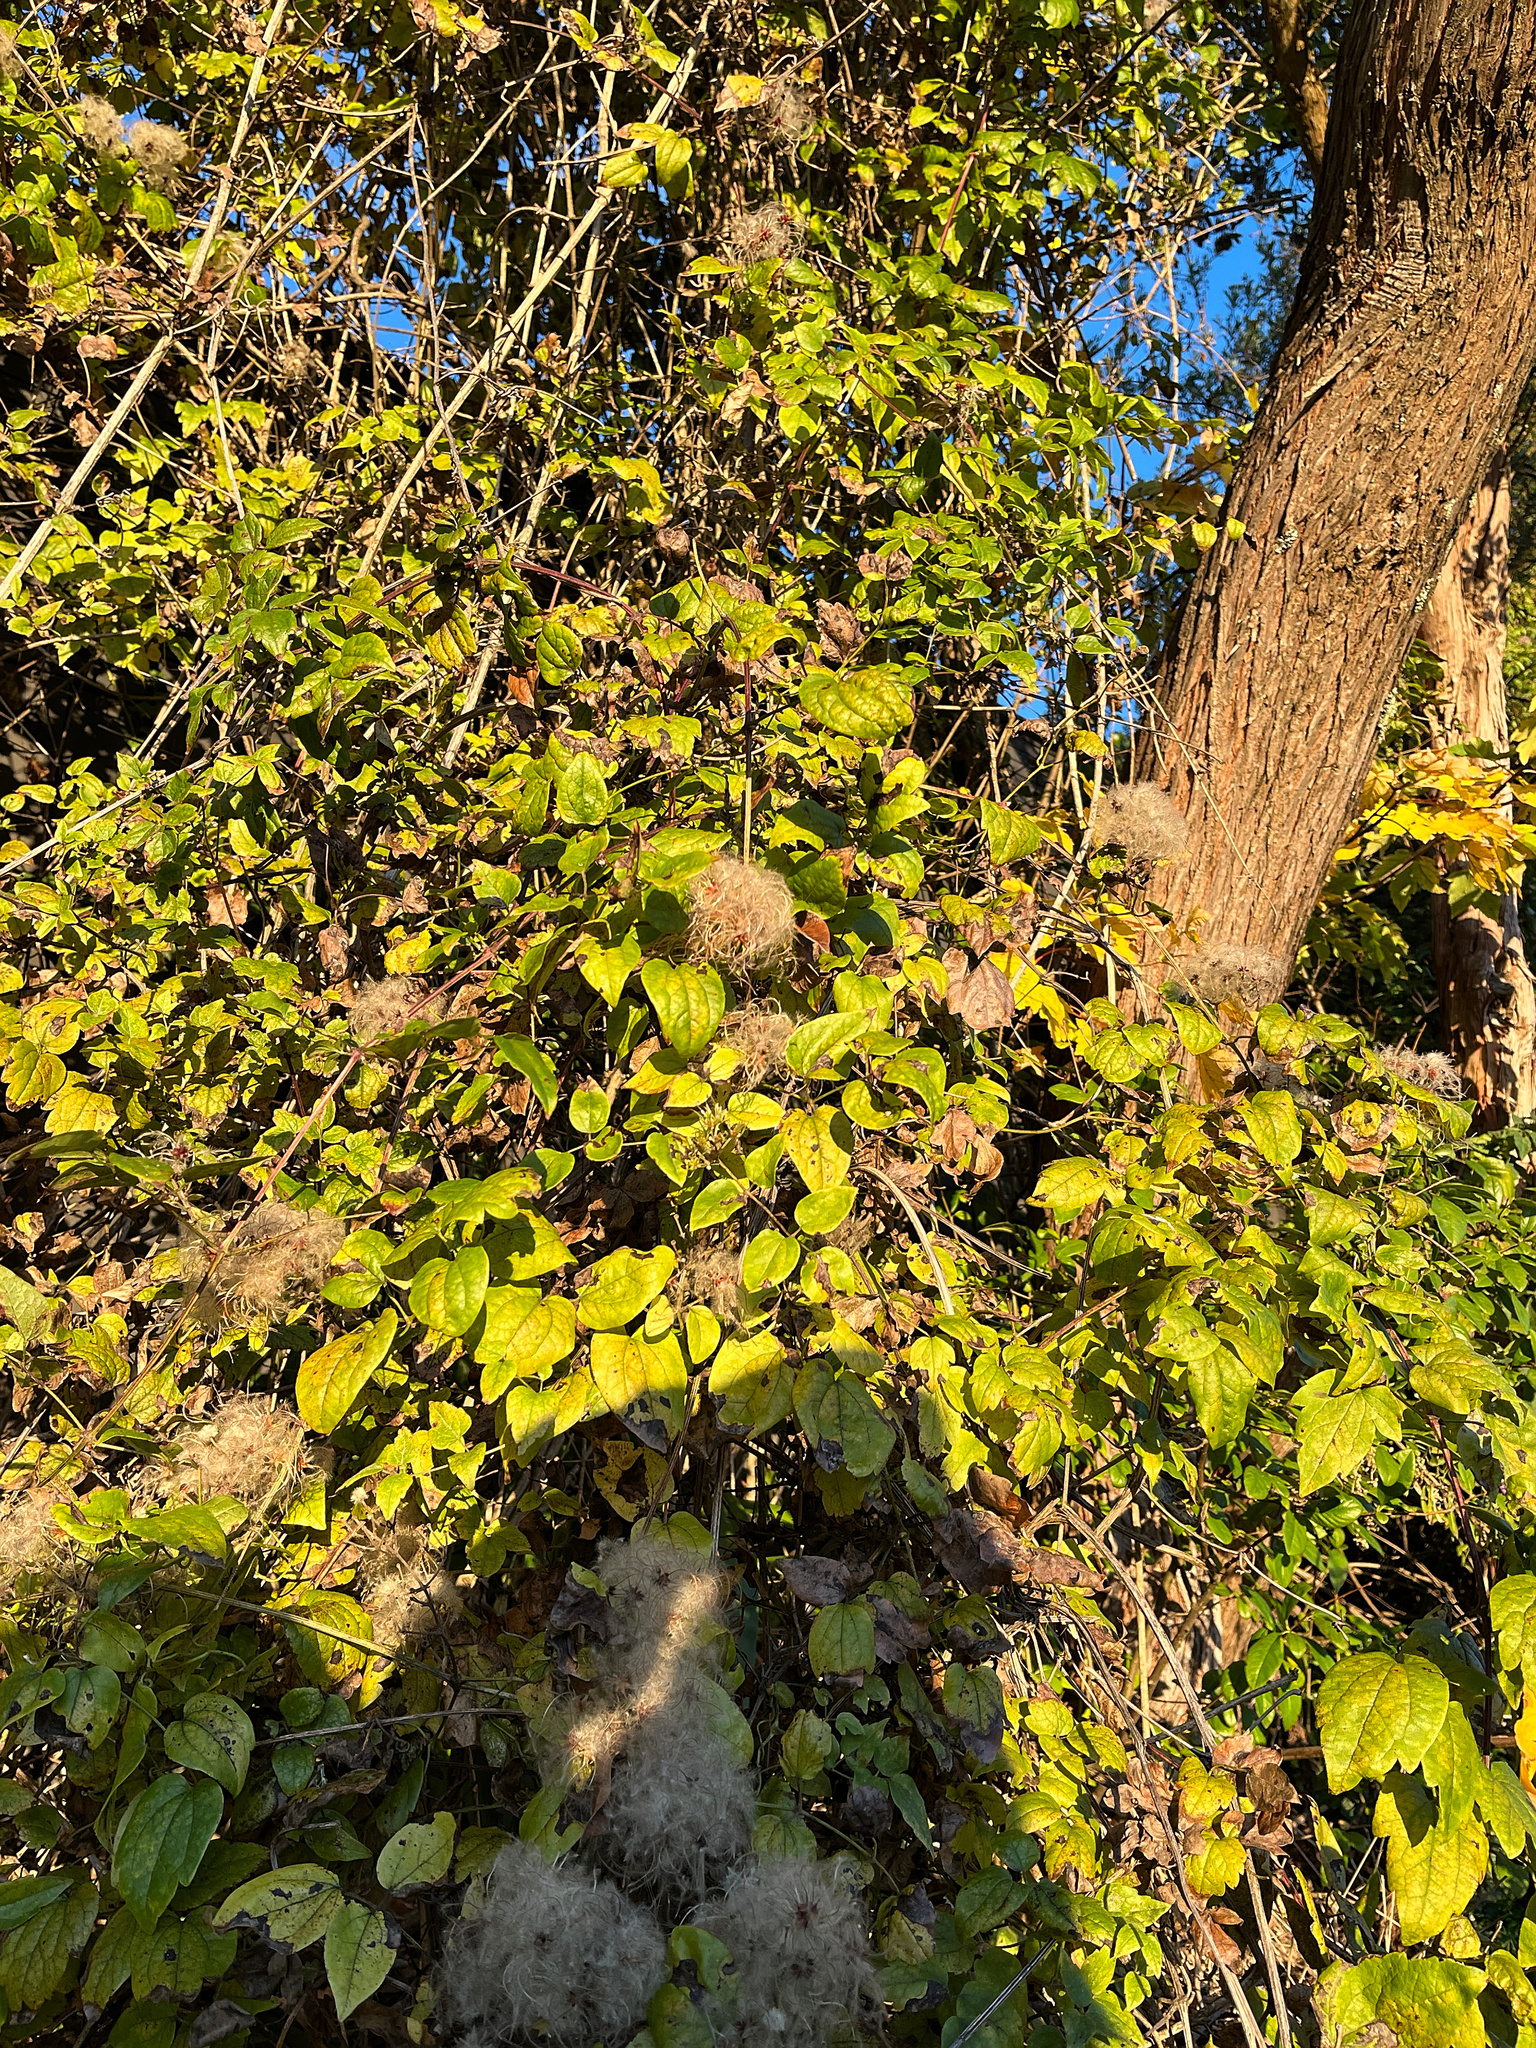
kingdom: Plantae
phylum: Tracheophyta
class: Magnoliopsida
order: Ranunculales
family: Ranunculaceae
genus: Clematis
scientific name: Clematis vitalba
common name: Evergreen clematis
